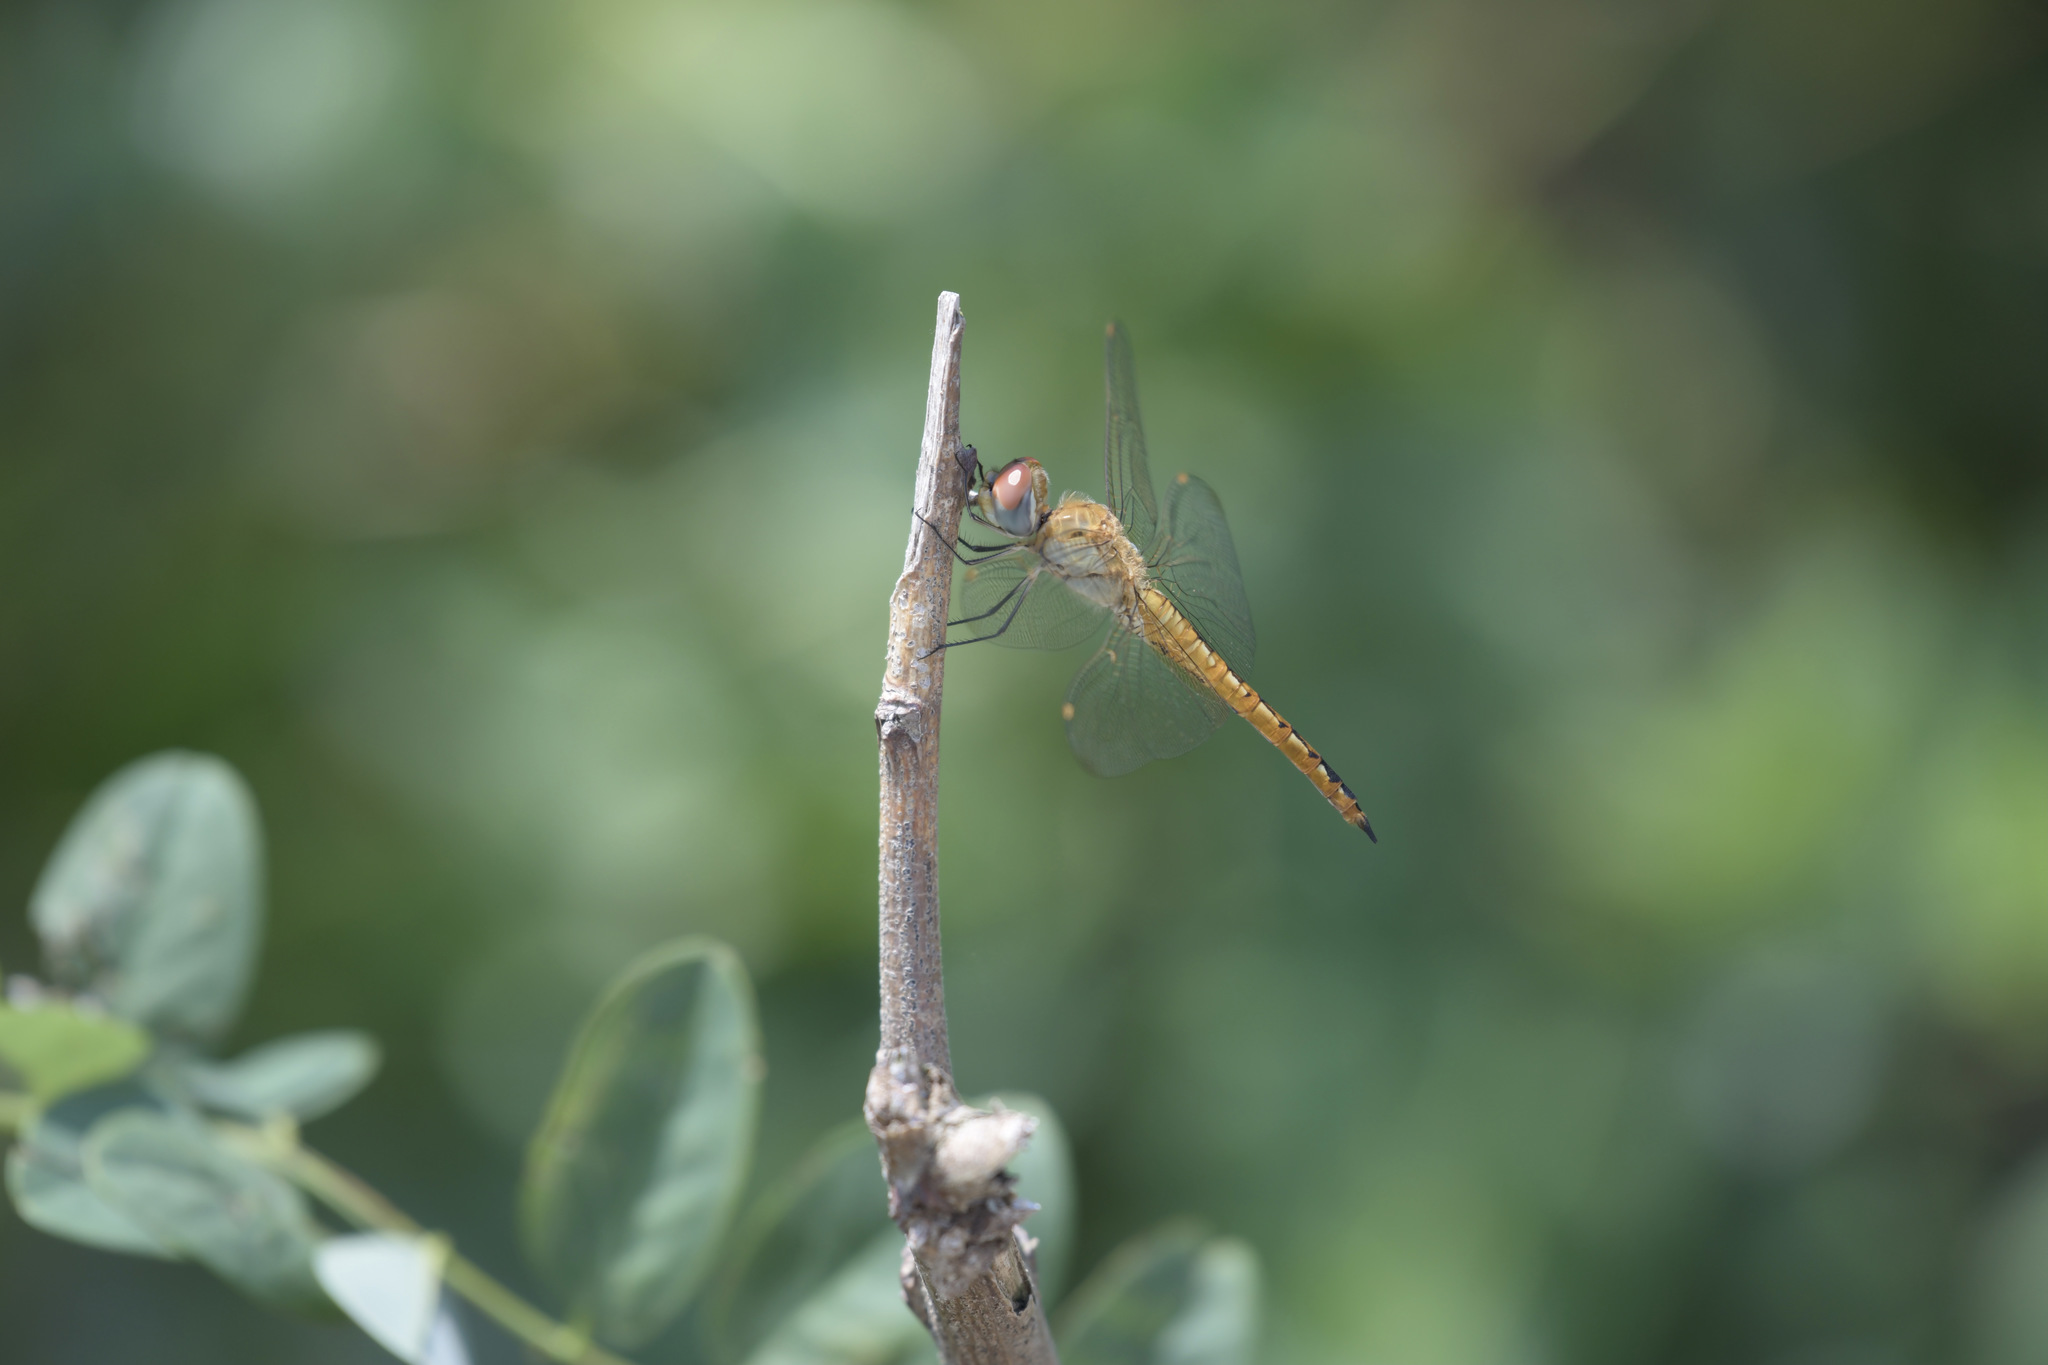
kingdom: Animalia
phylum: Arthropoda
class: Insecta
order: Odonata
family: Libellulidae
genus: Pantala
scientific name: Pantala flavescens
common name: Wandering glider
